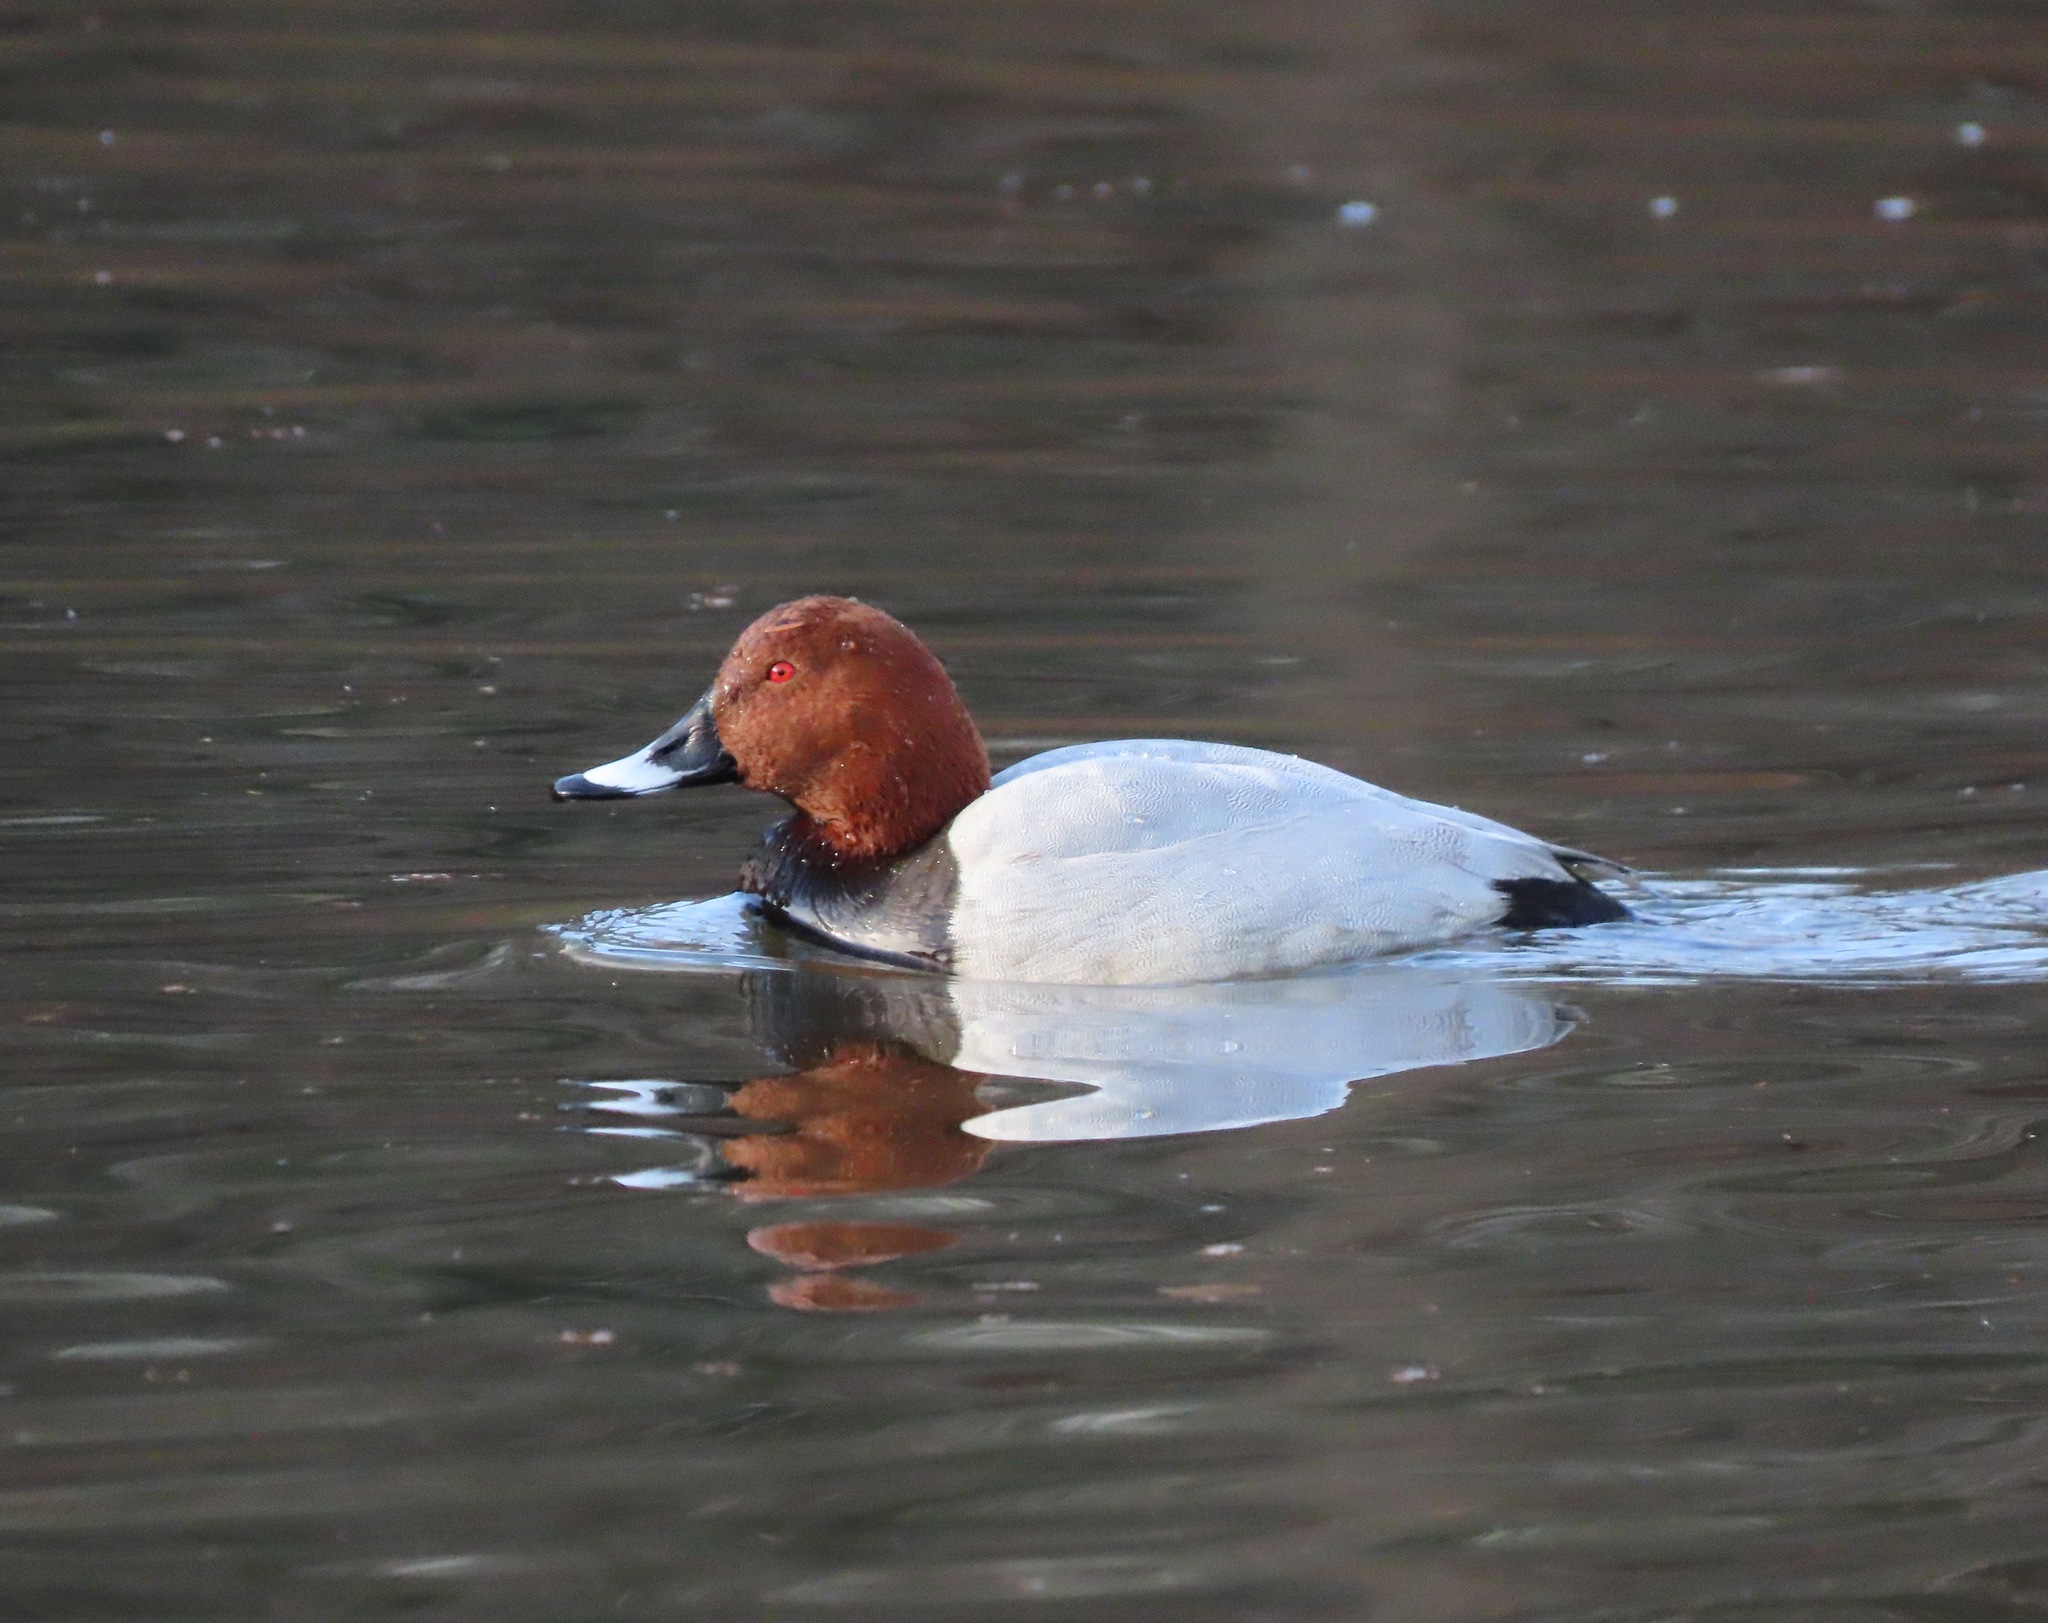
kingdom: Animalia
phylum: Chordata
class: Aves
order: Anseriformes
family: Anatidae
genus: Aythya
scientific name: Aythya ferina
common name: Common pochard
